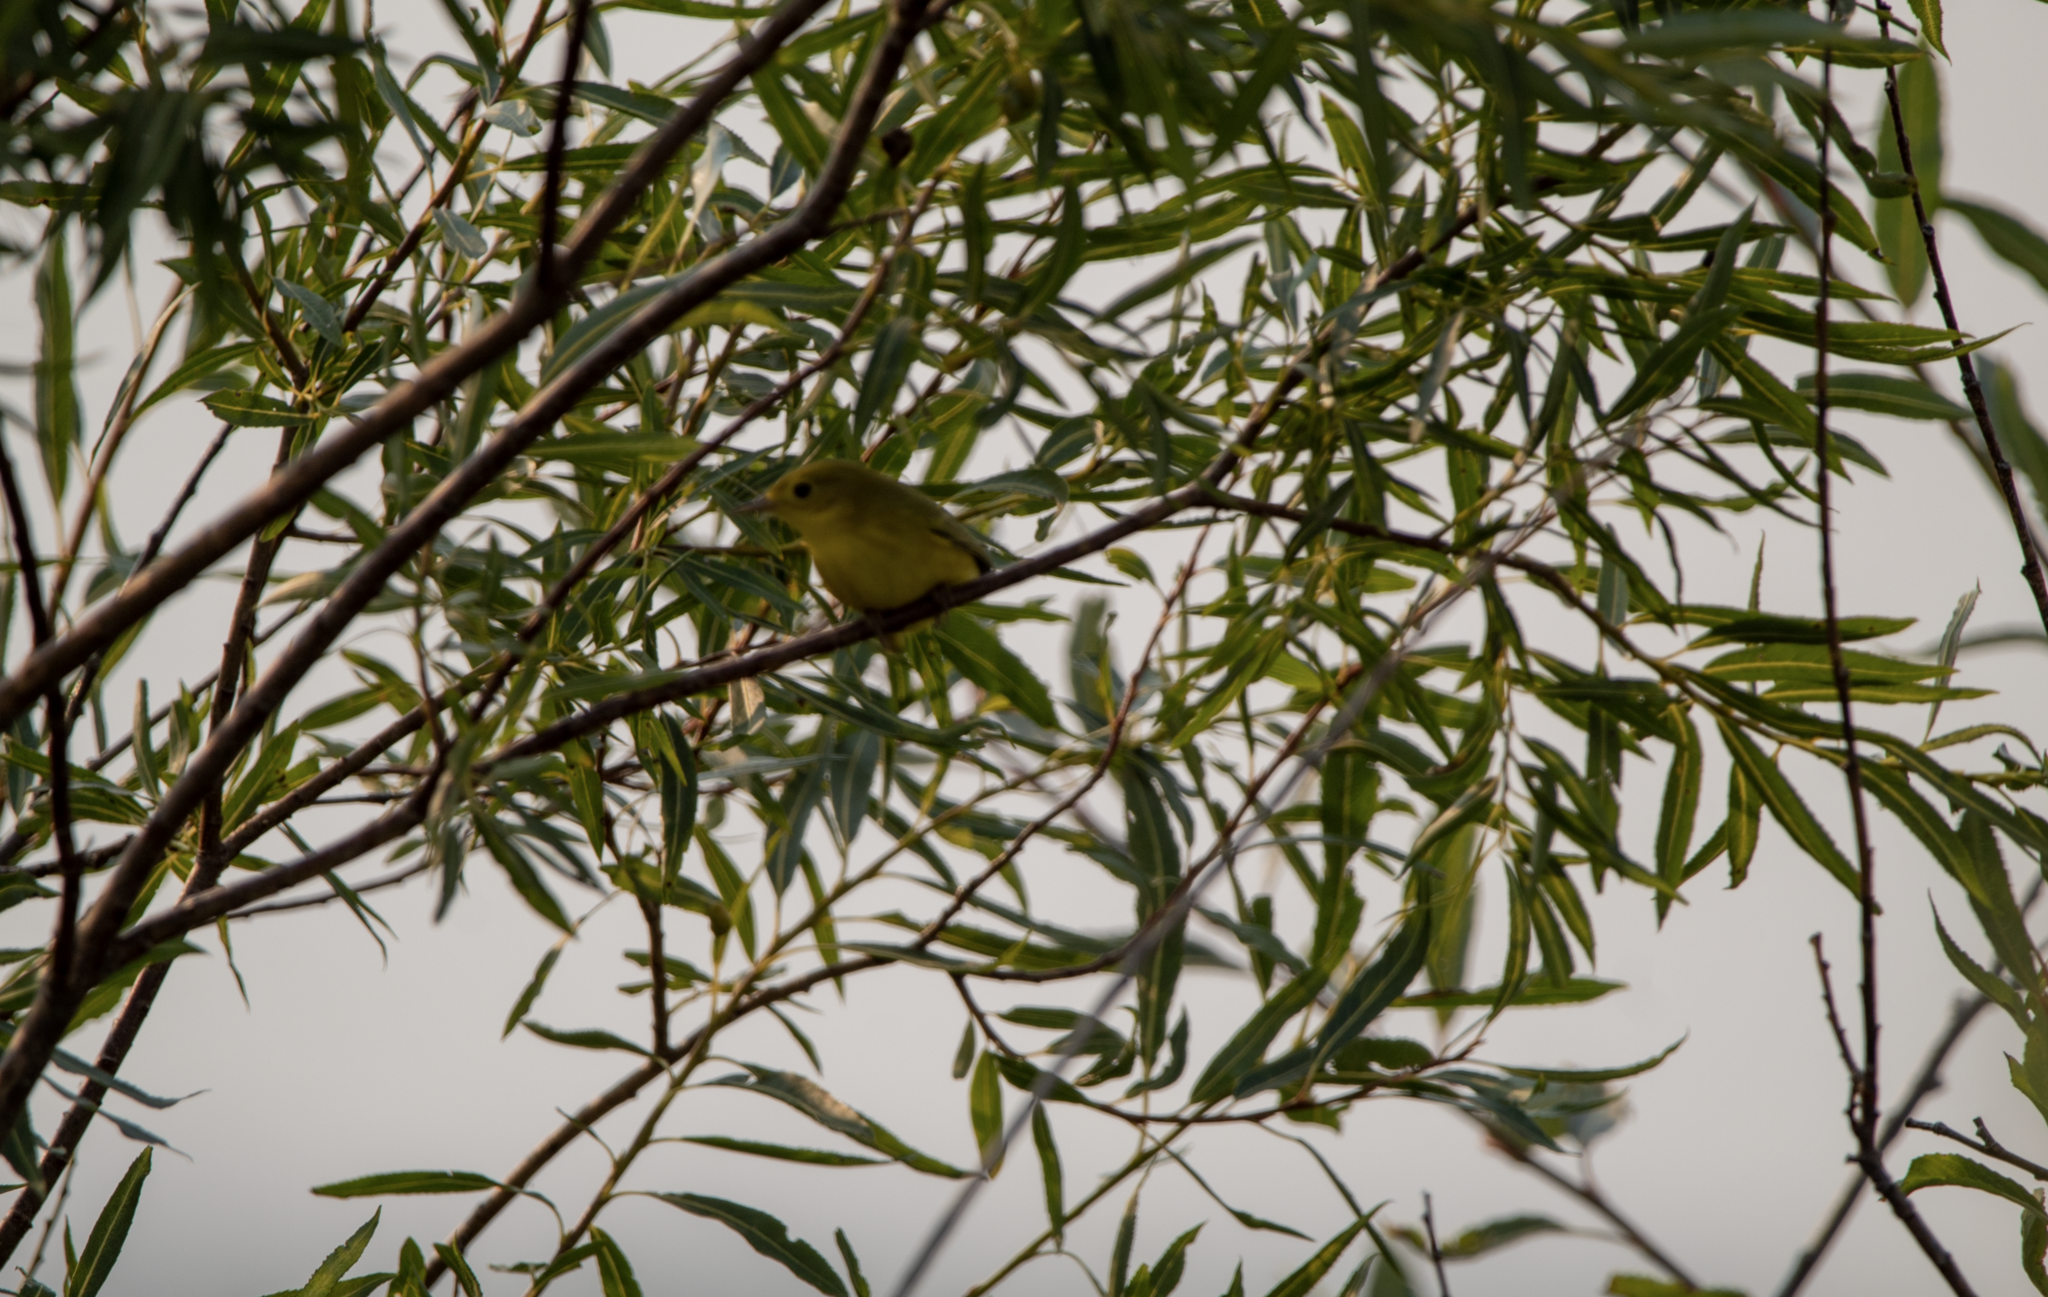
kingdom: Animalia
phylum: Chordata
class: Aves
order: Passeriformes
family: Parulidae
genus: Setophaga
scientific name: Setophaga petechia
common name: Yellow warbler
